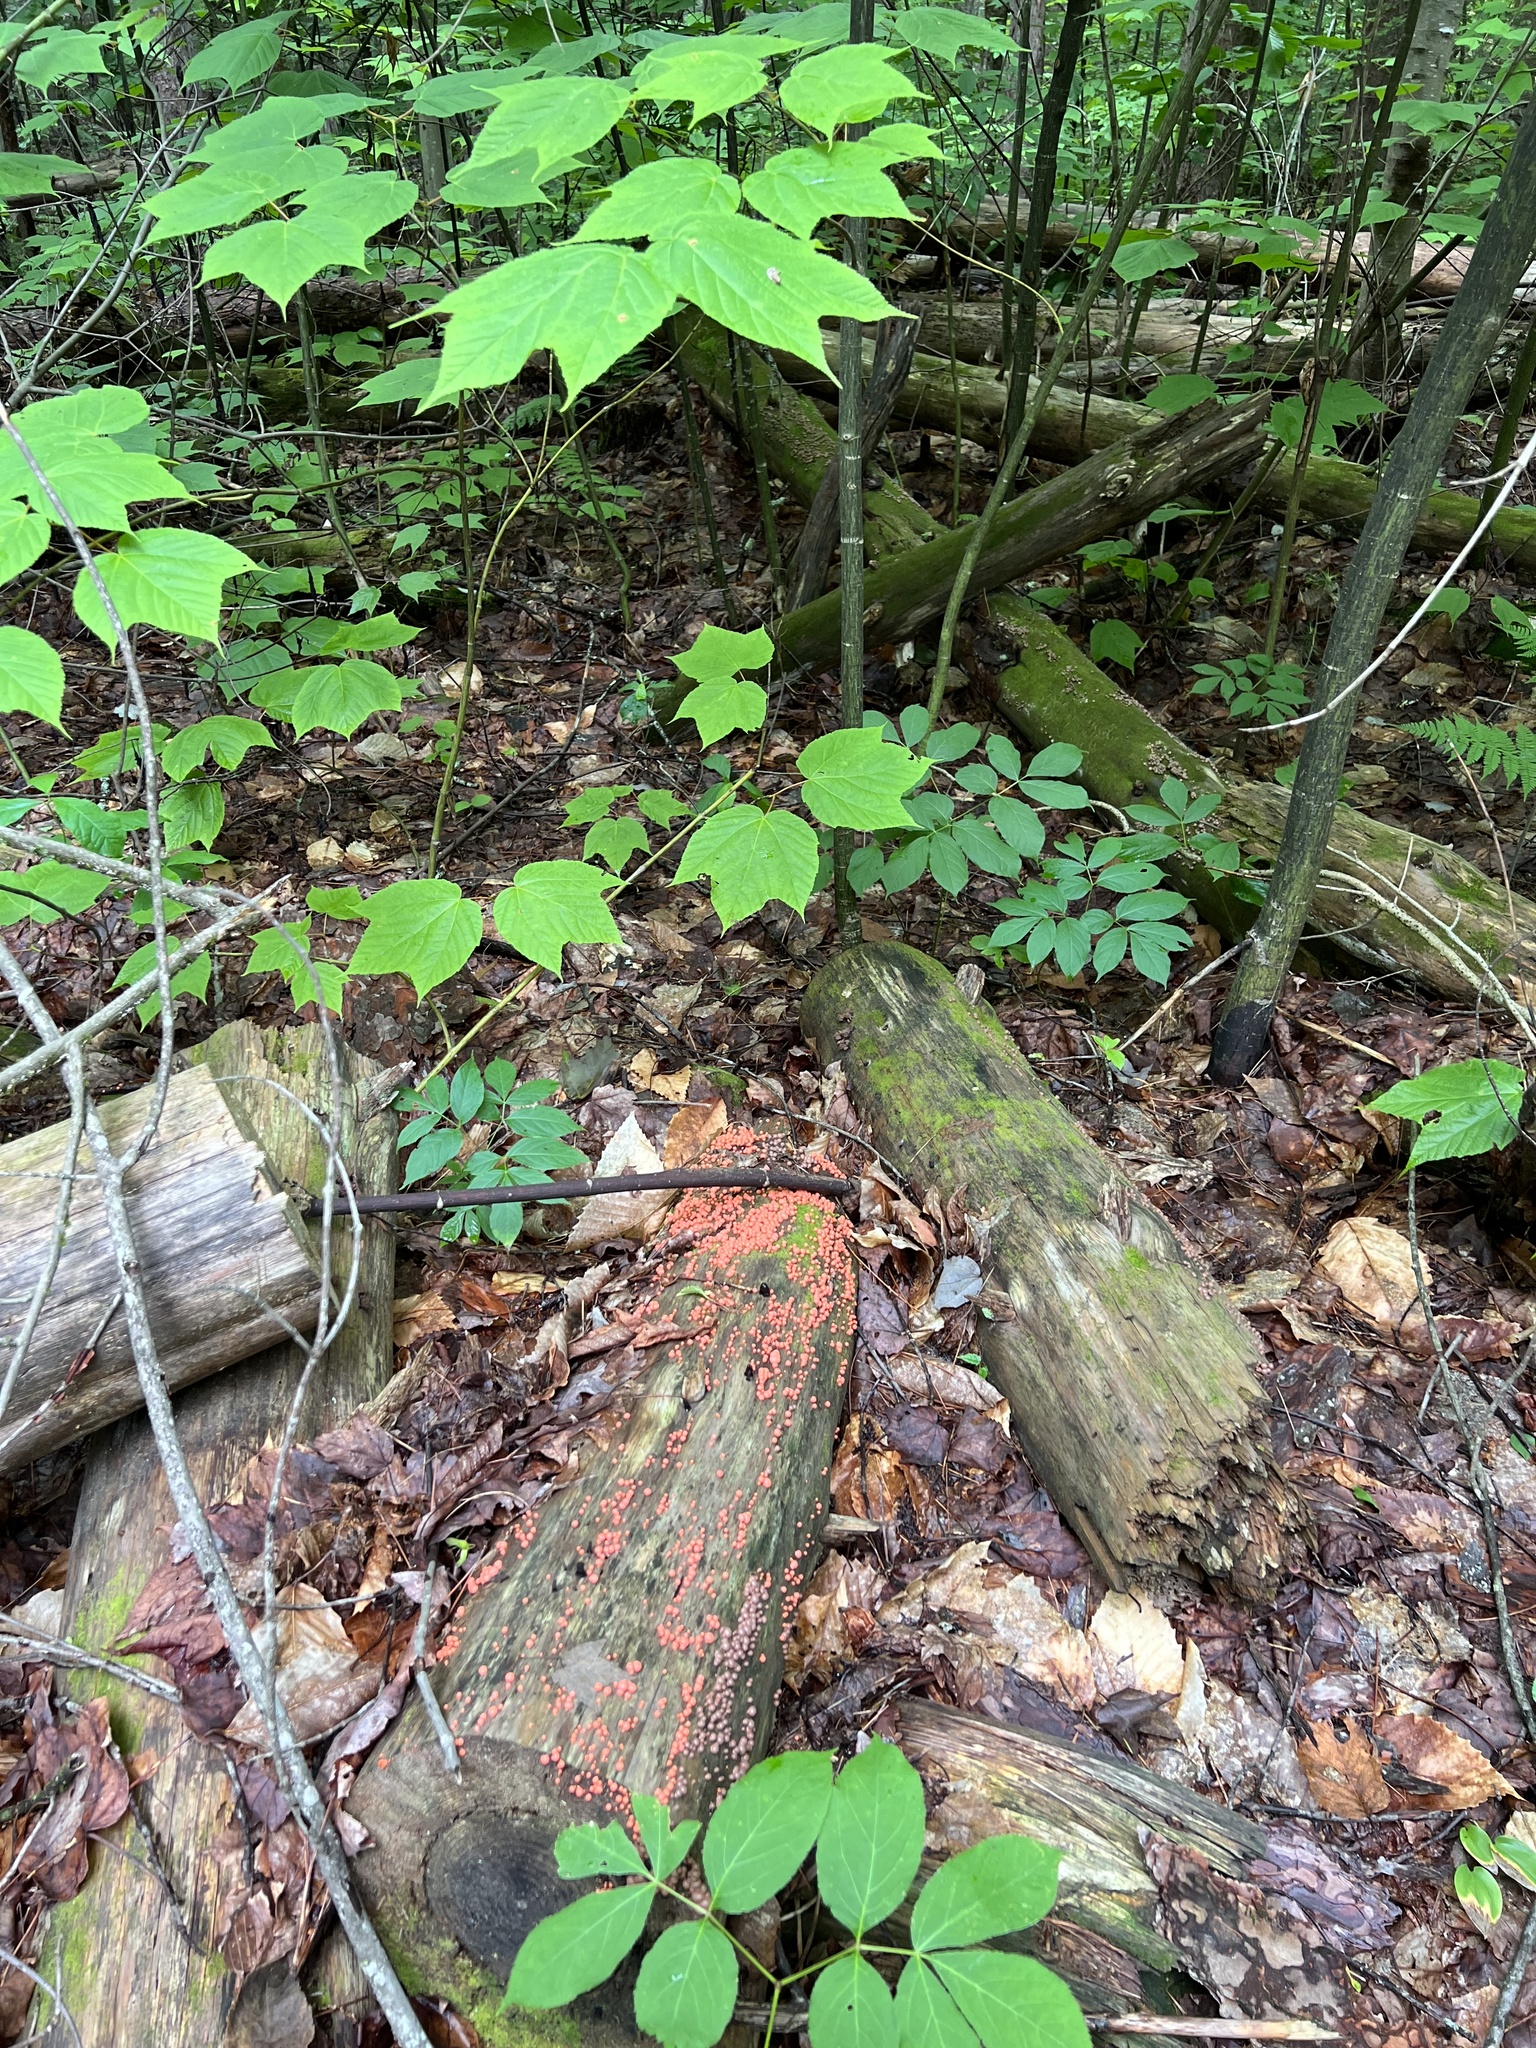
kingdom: Protozoa
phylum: Mycetozoa
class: Myxomycetes
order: Cribrariales
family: Tubiferaceae
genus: Lycogala
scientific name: Lycogala epidendrum
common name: Wolf's milk
